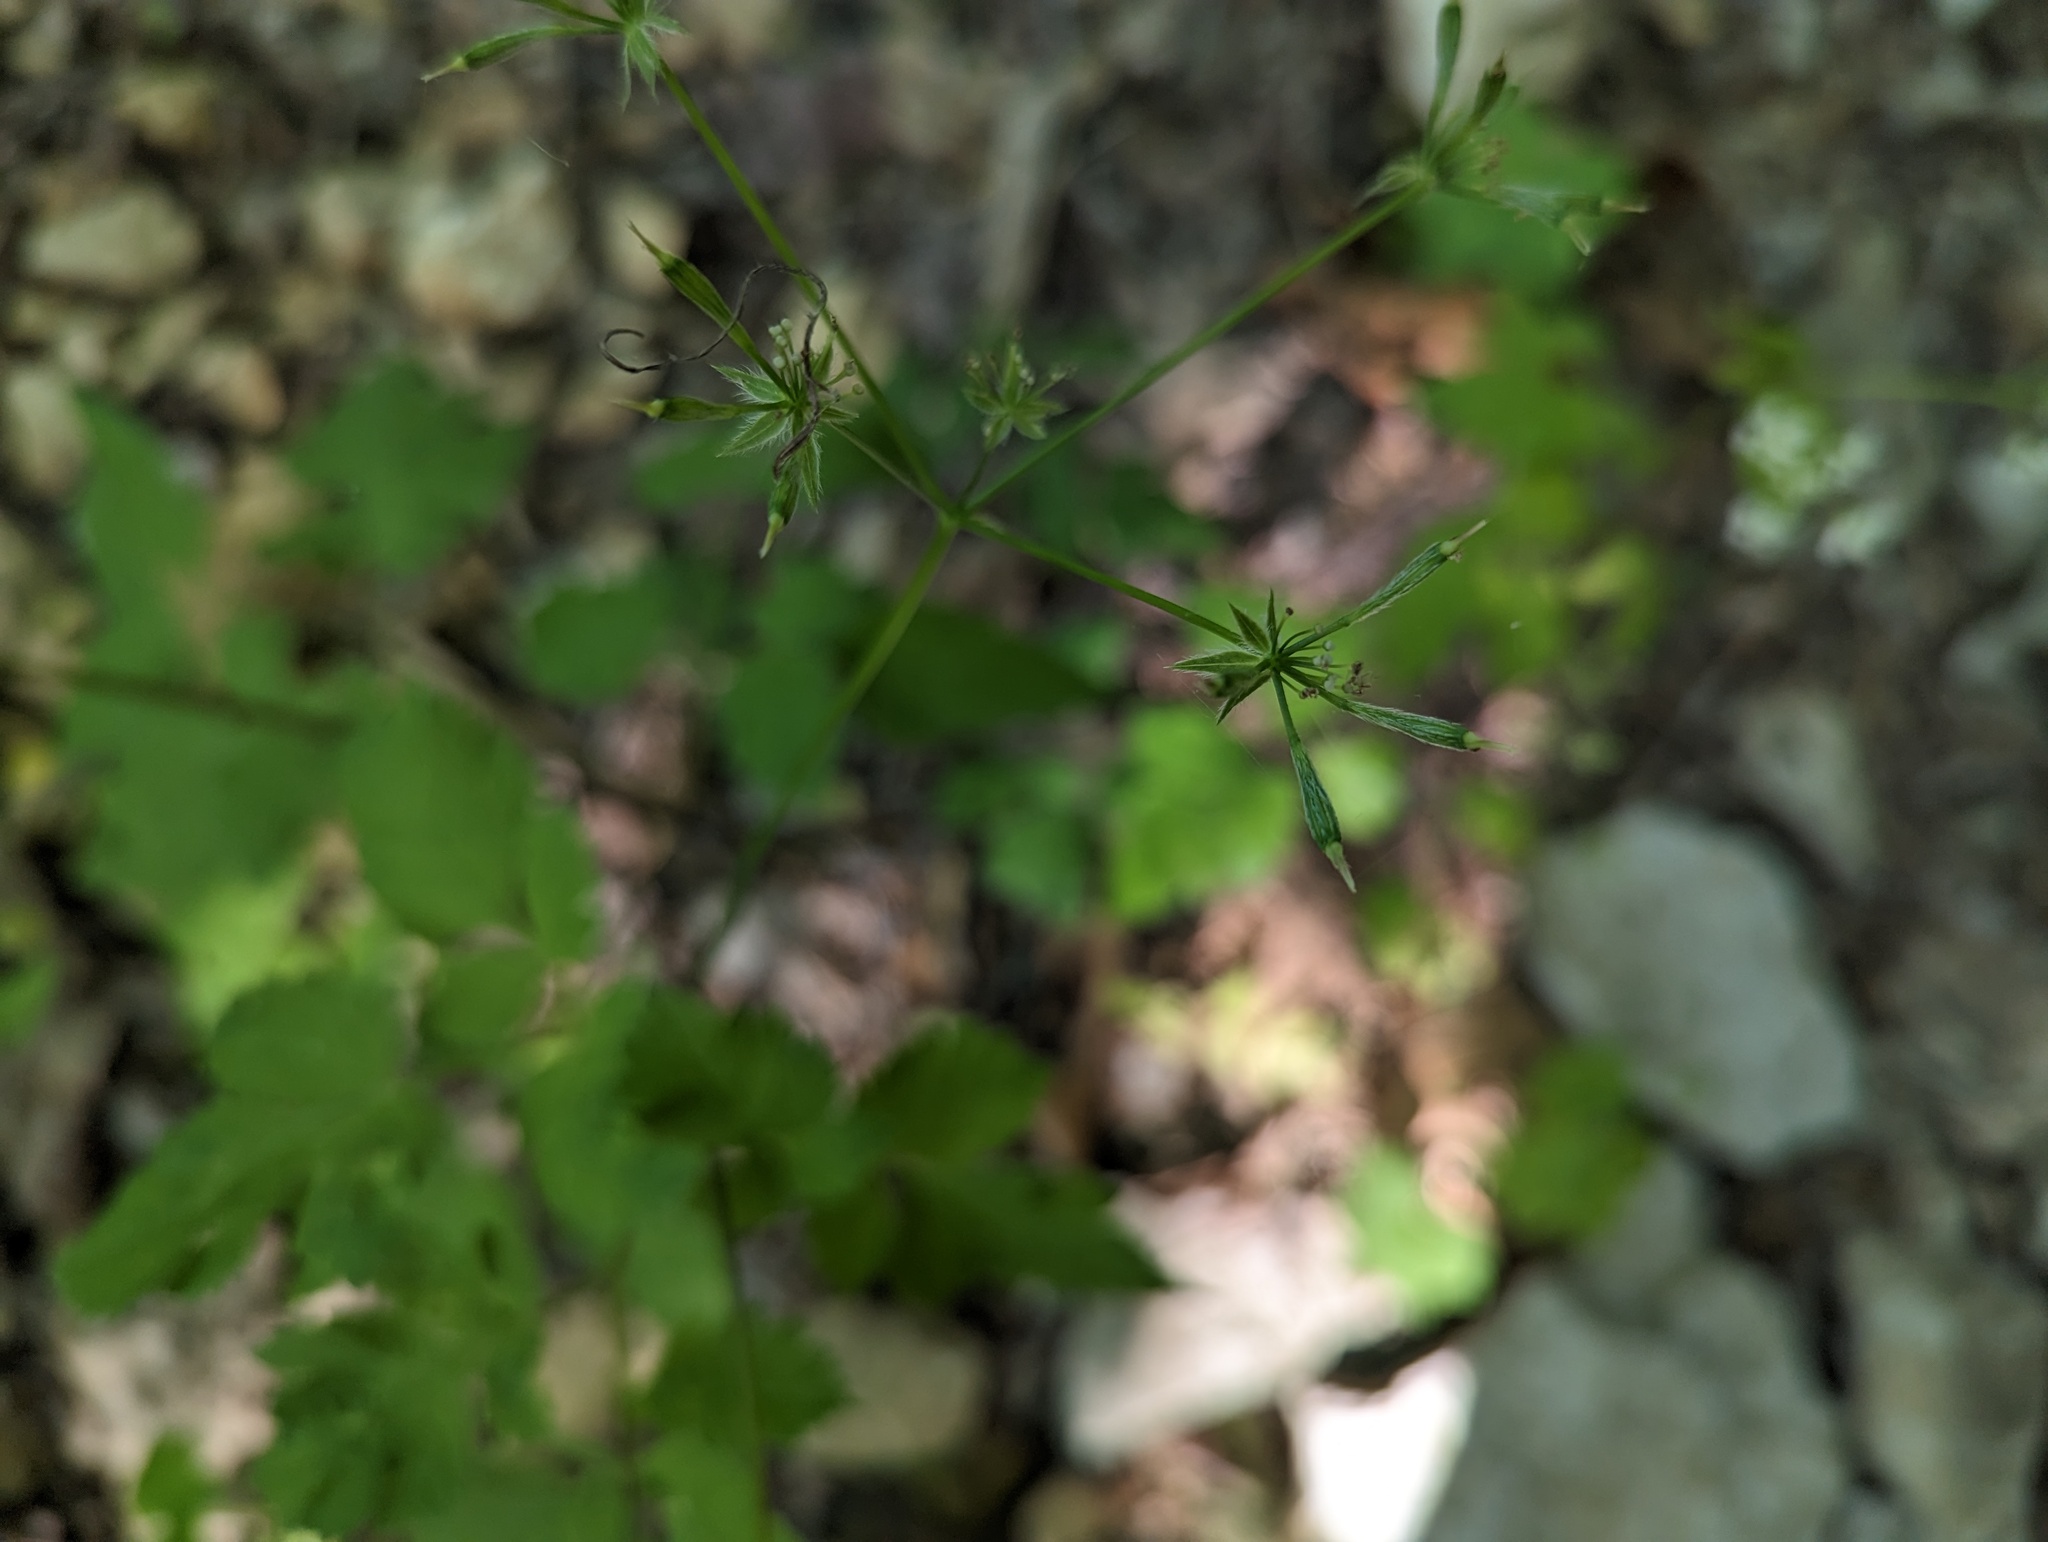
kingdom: Plantae
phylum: Tracheophyta
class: Magnoliopsida
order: Apiales
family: Apiaceae
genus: Osmorhiza
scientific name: Osmorhiza longistylis
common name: Smooth sweet cicely
